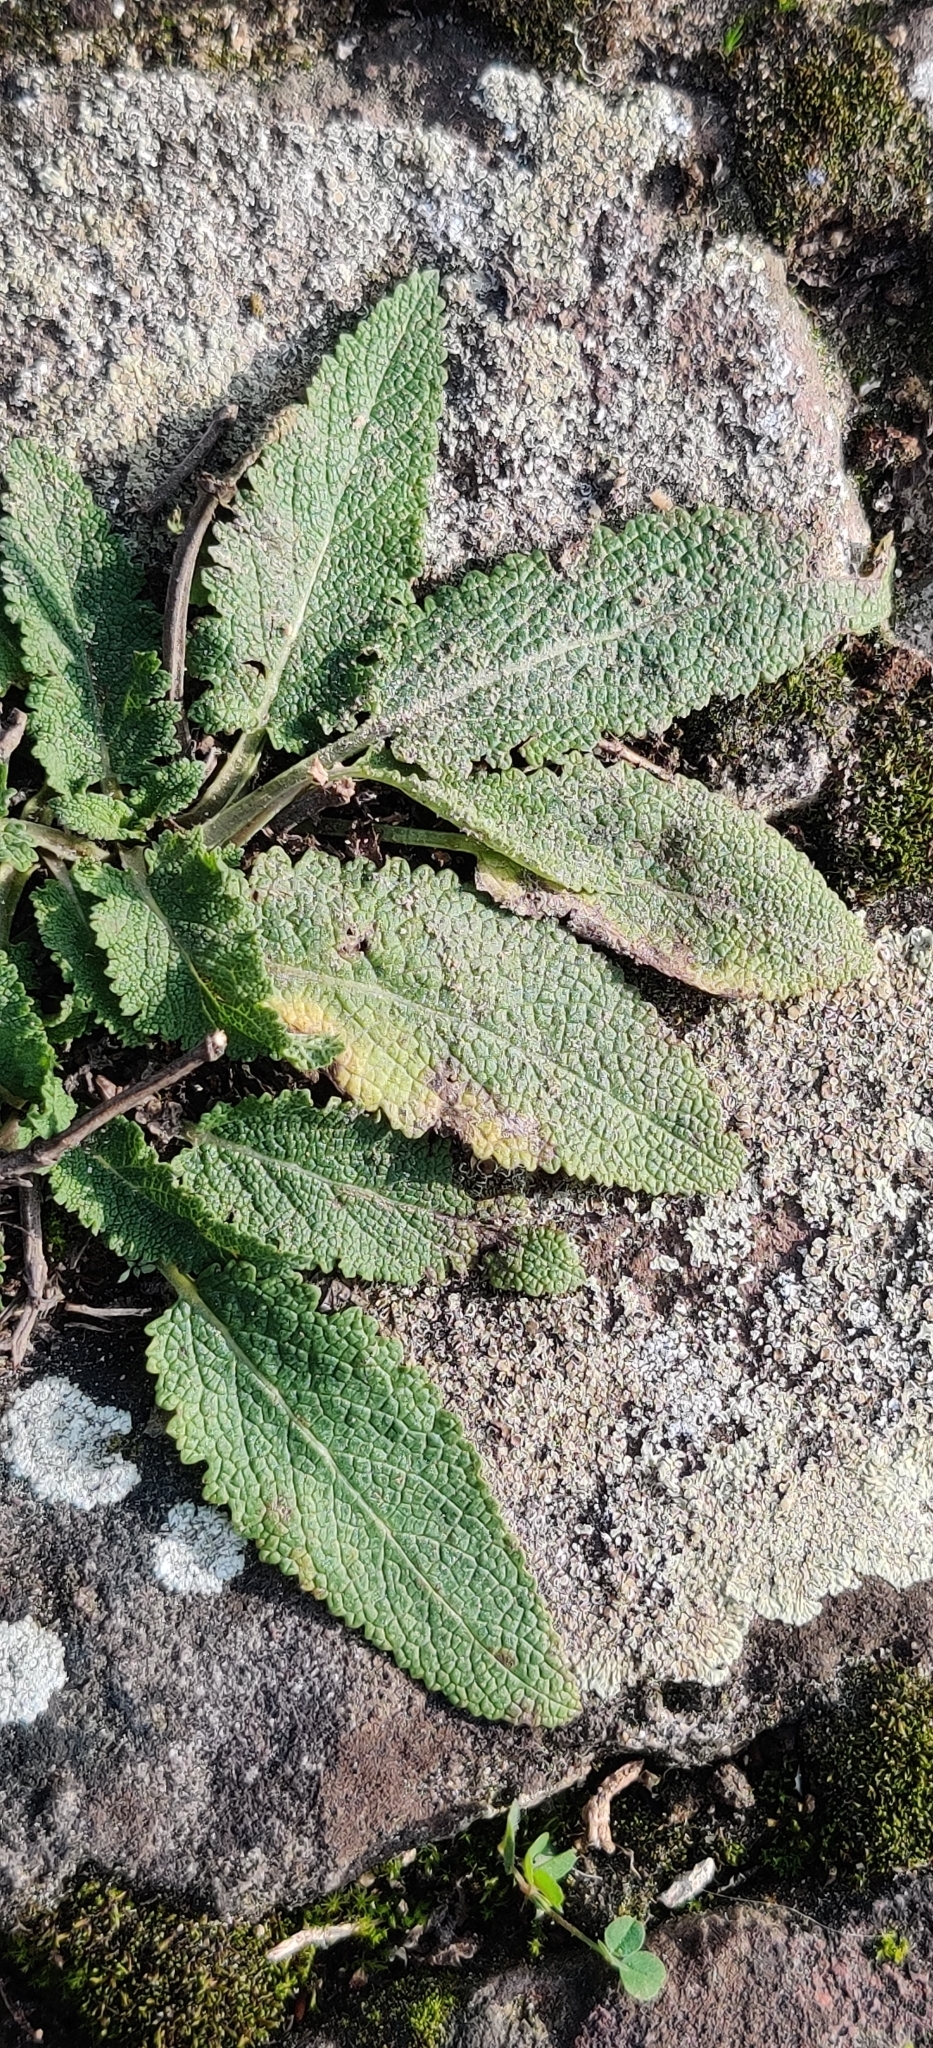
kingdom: Plantae
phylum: Tracheophyta
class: Magnoliopsida
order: Lamiales
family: Lamiaceae
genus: Salvia
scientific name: Salvia pratensis
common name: Meadow sage
